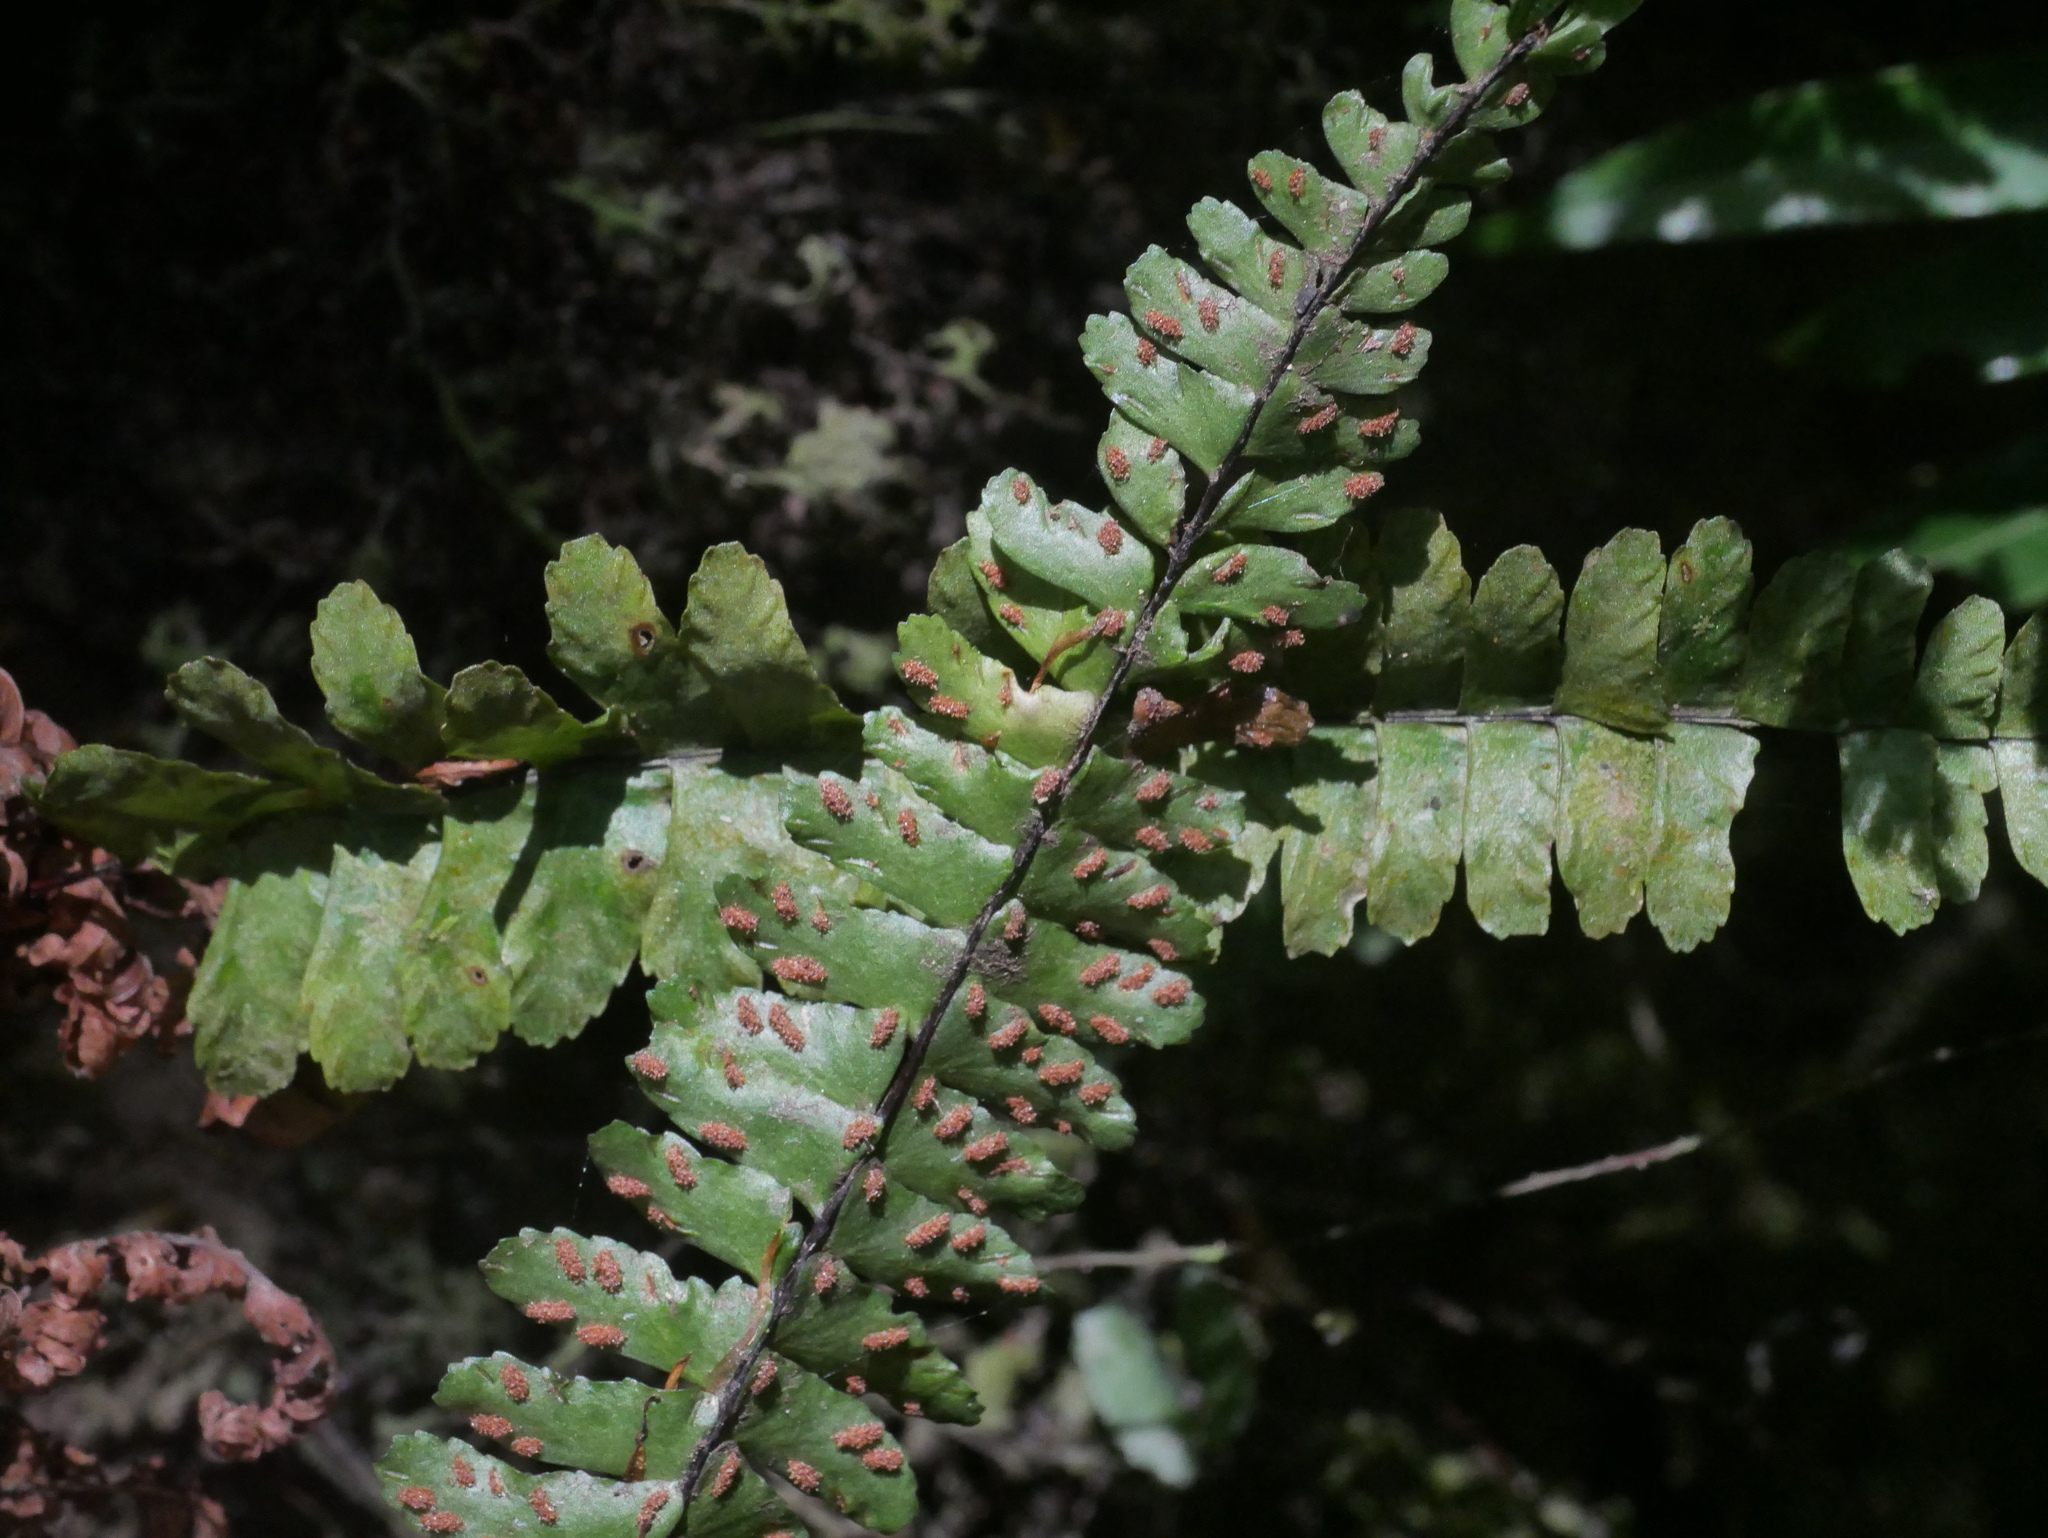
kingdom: Plantae
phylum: Tracheophyta
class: Polypodiopsida
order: Polypodiales
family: Aspleniaceae
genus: Asplenium
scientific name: Asplenium normale
